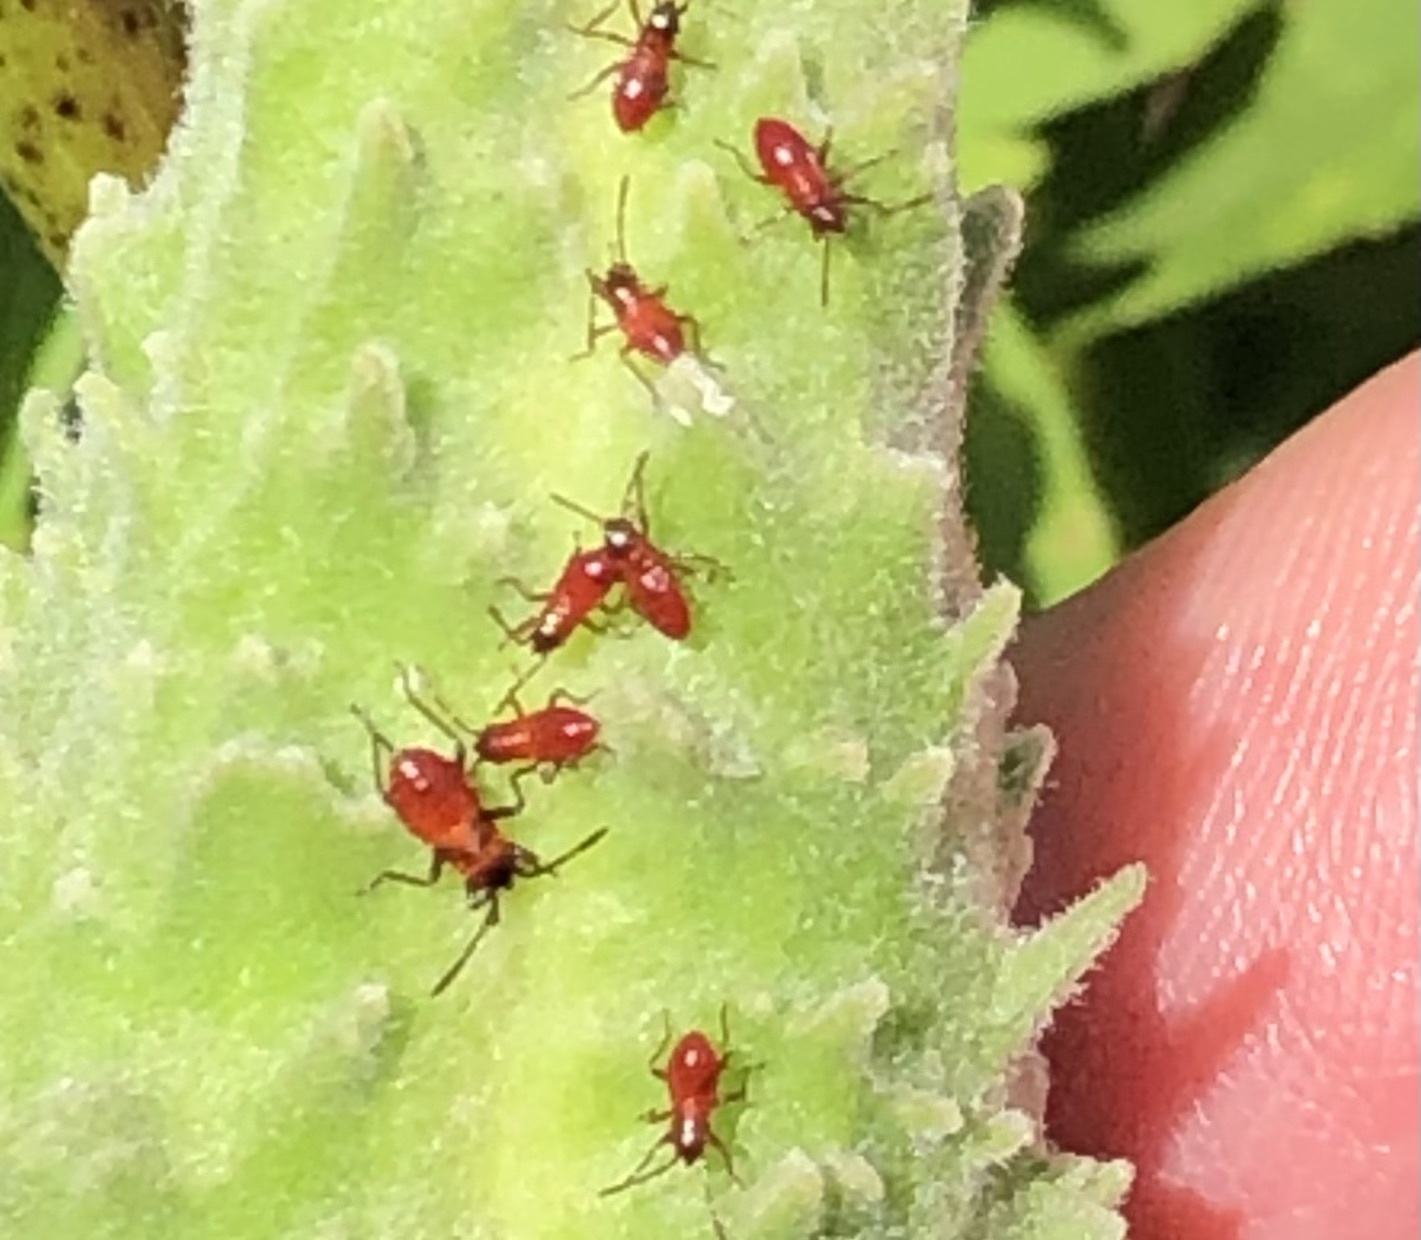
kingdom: Animalia
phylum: Arthropoda
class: Insecta
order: Hemiptera
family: Lygaeidae
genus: Oncopeltus
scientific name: Oncopeltus fasciatus
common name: Large milkweed bug
